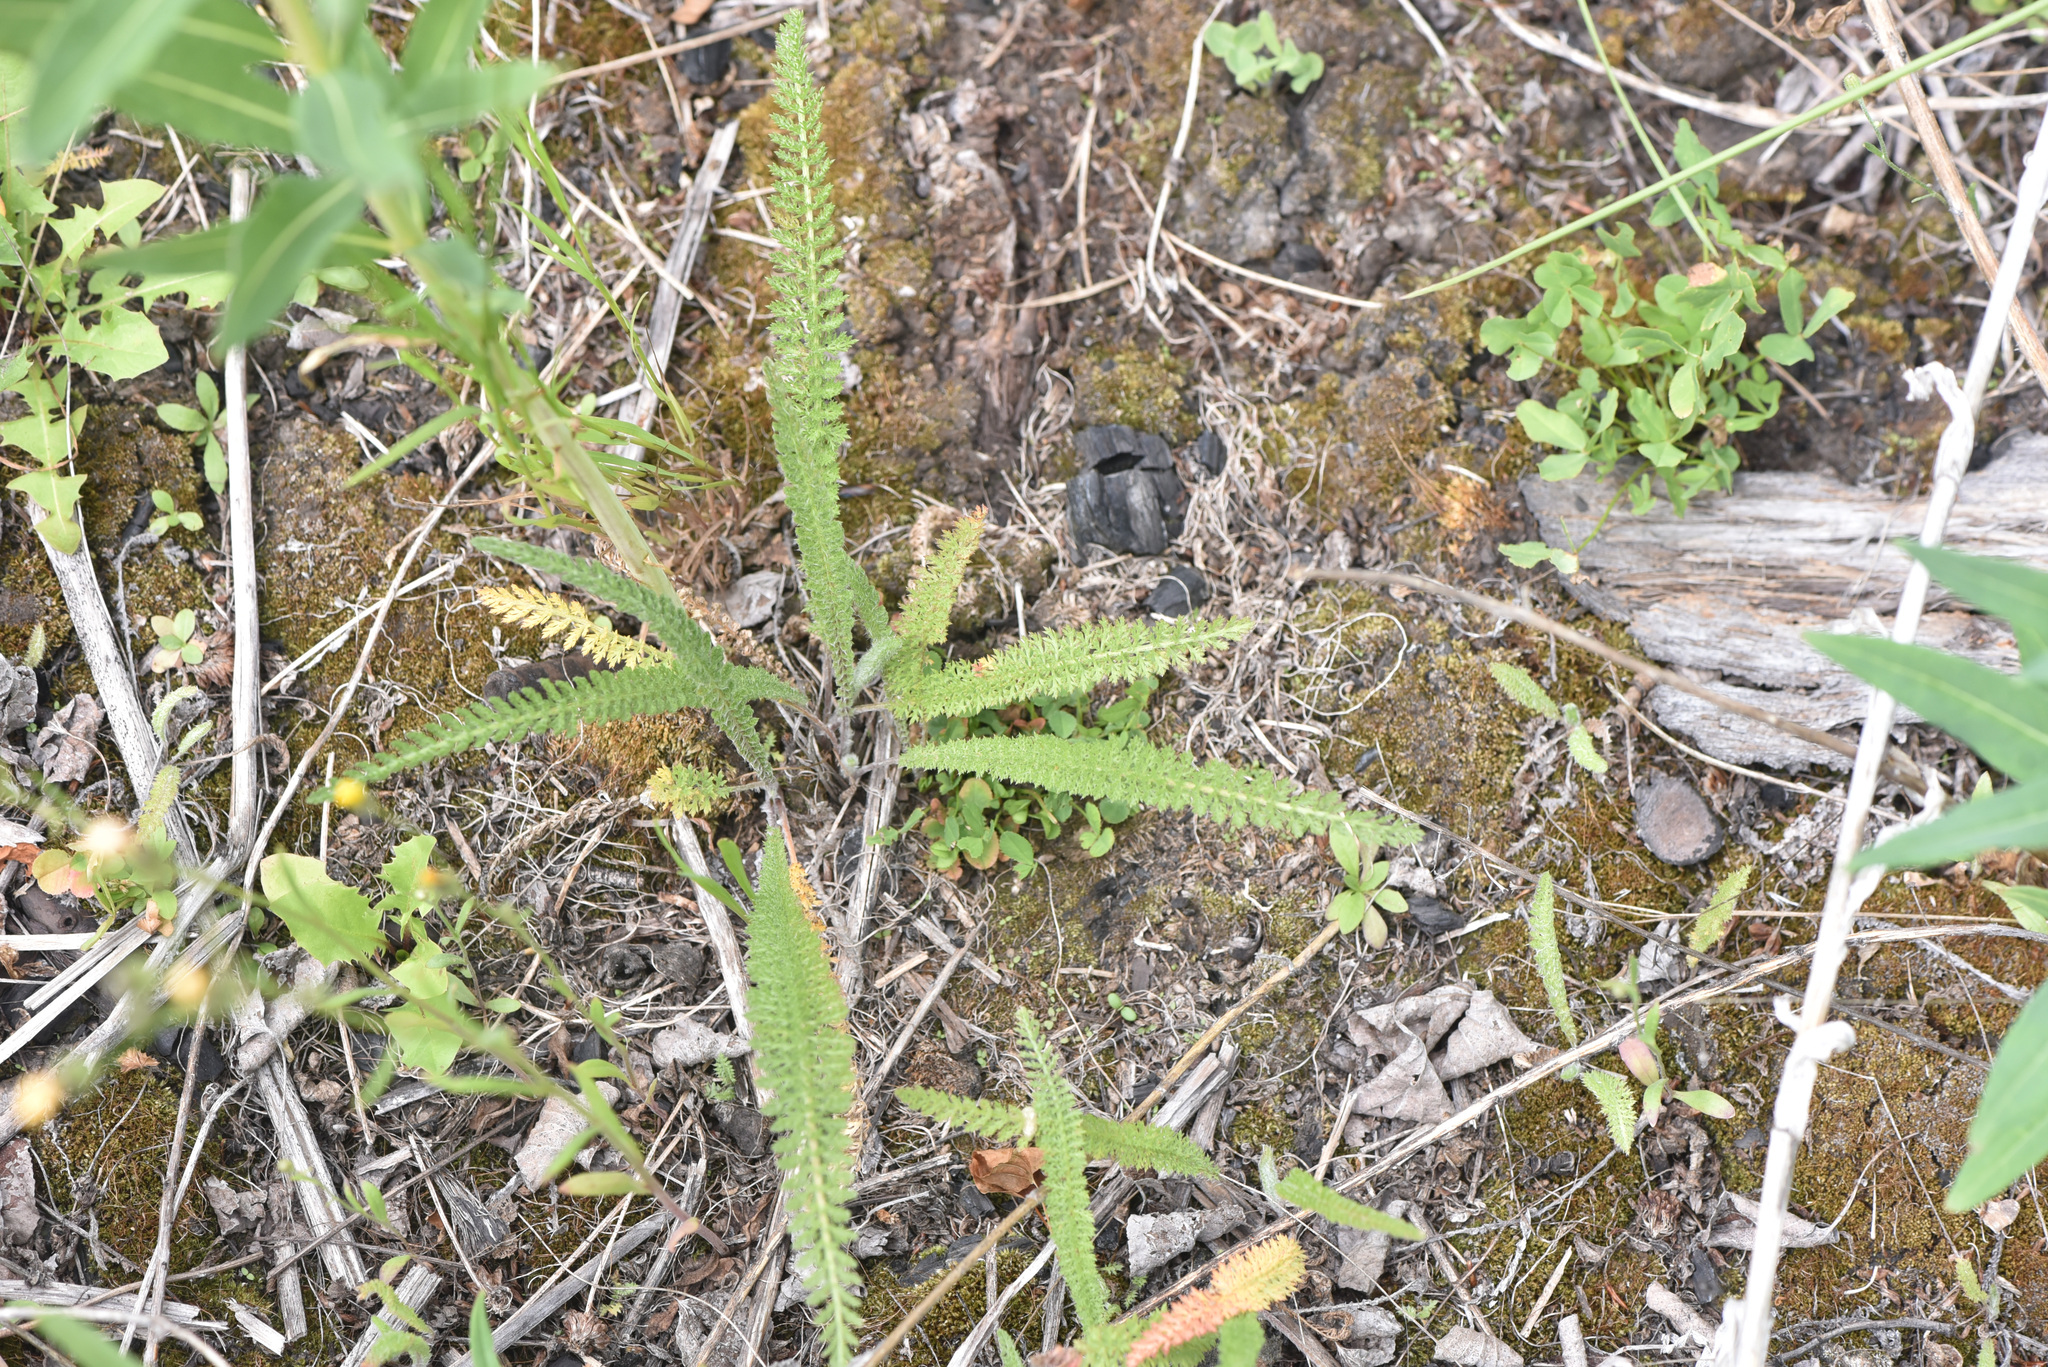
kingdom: Plantae
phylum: Tracheophyta
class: Magnoliopsida
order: Asterales
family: Asteraceae
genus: Achillea
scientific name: Achillea millefolium
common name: Yarrow
